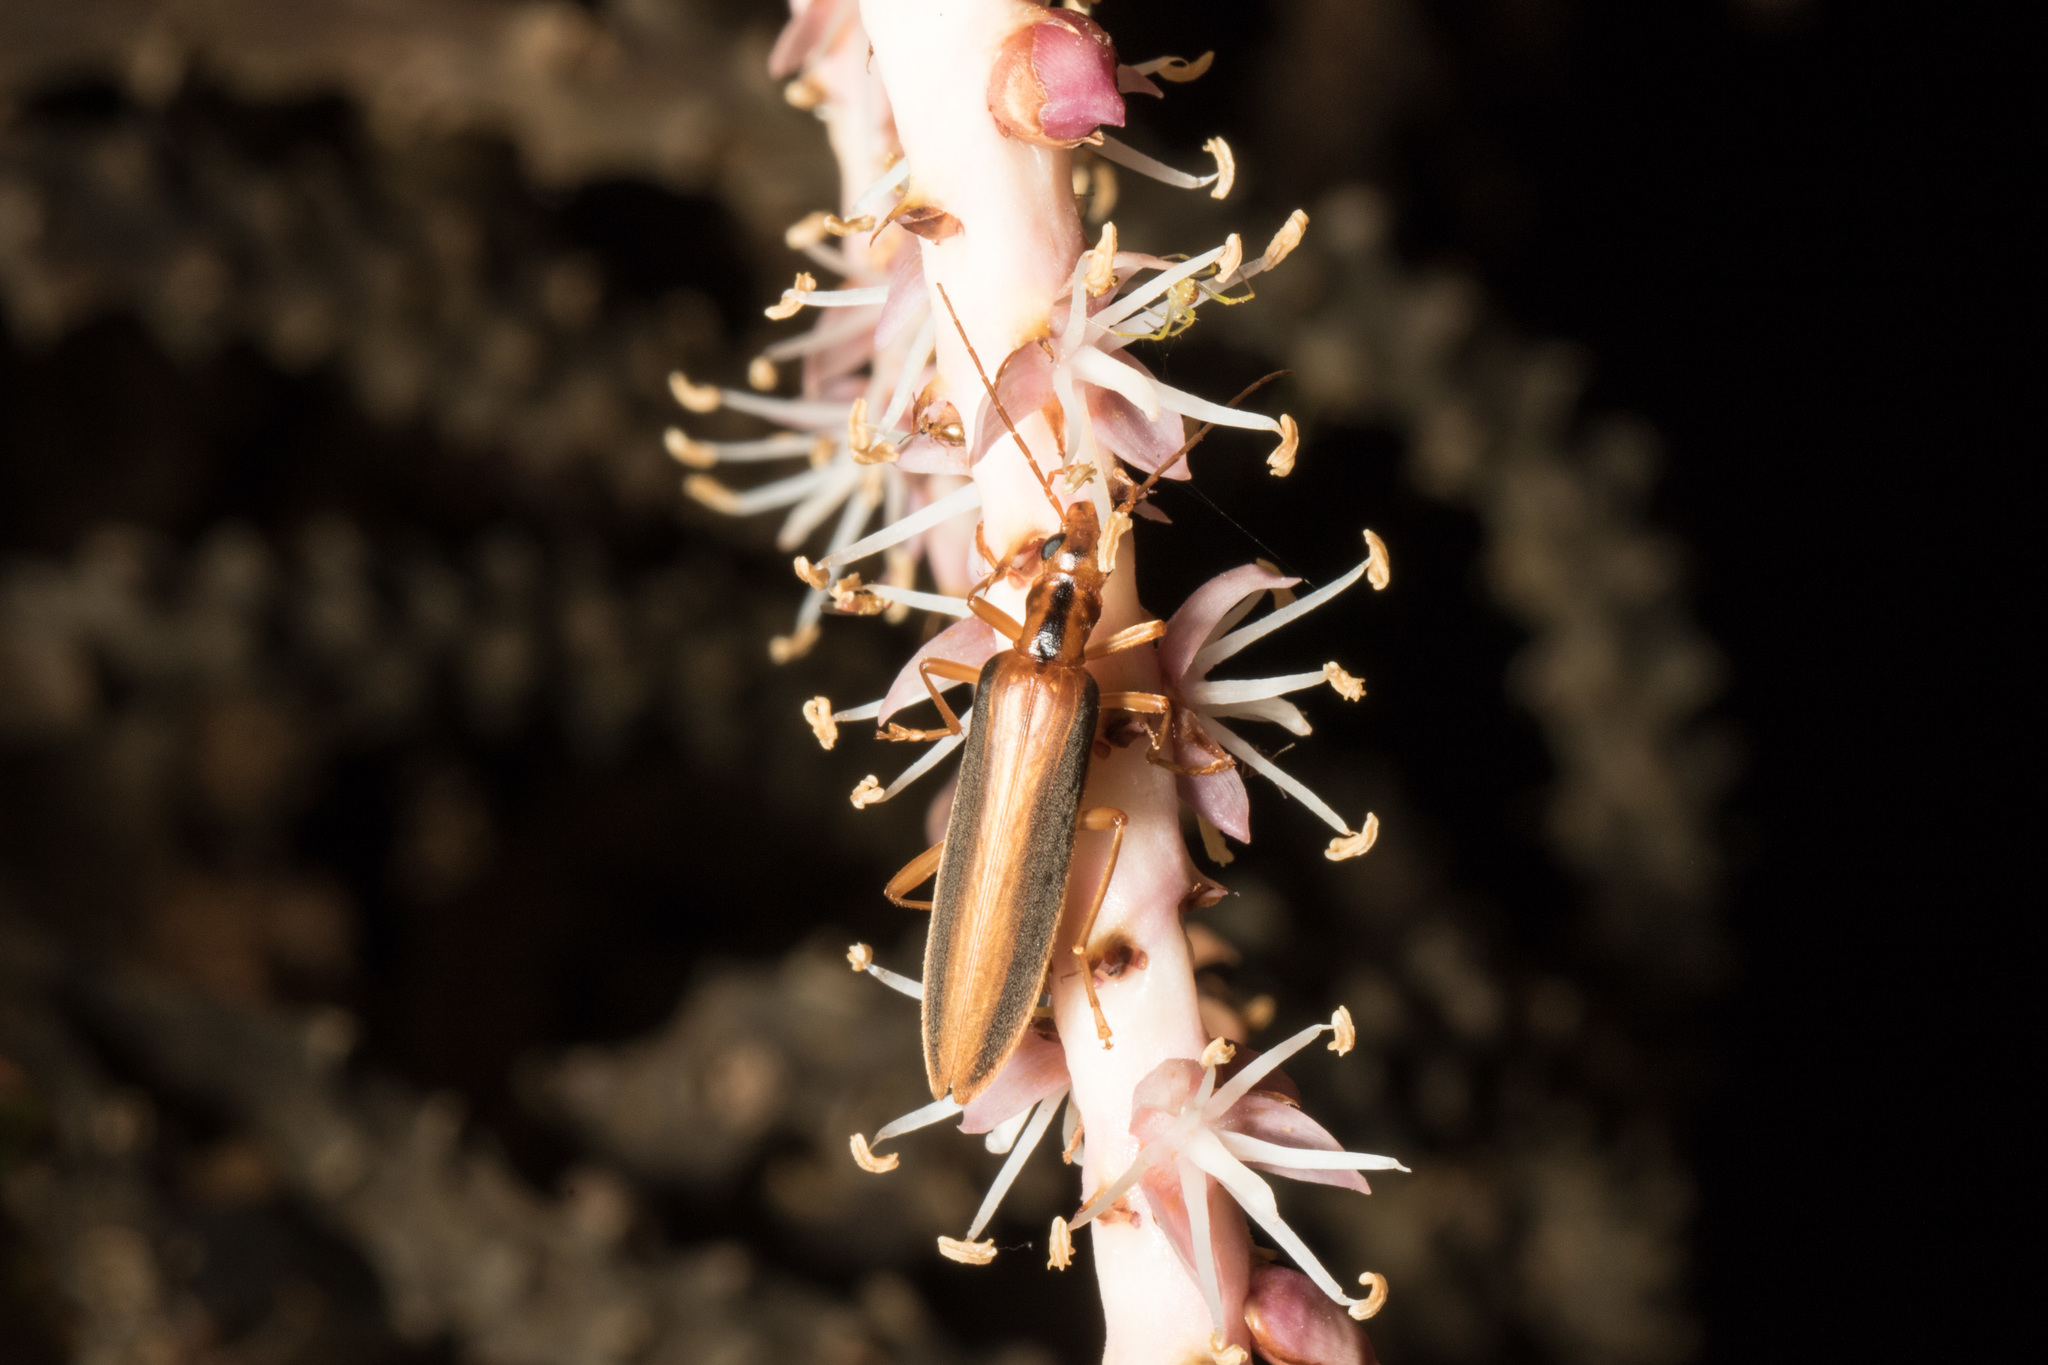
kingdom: Animalia
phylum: Arthropoda
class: Insecta
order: Coleoptera
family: Oedemeridae
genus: Thelyphassa
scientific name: Thelyphassa
